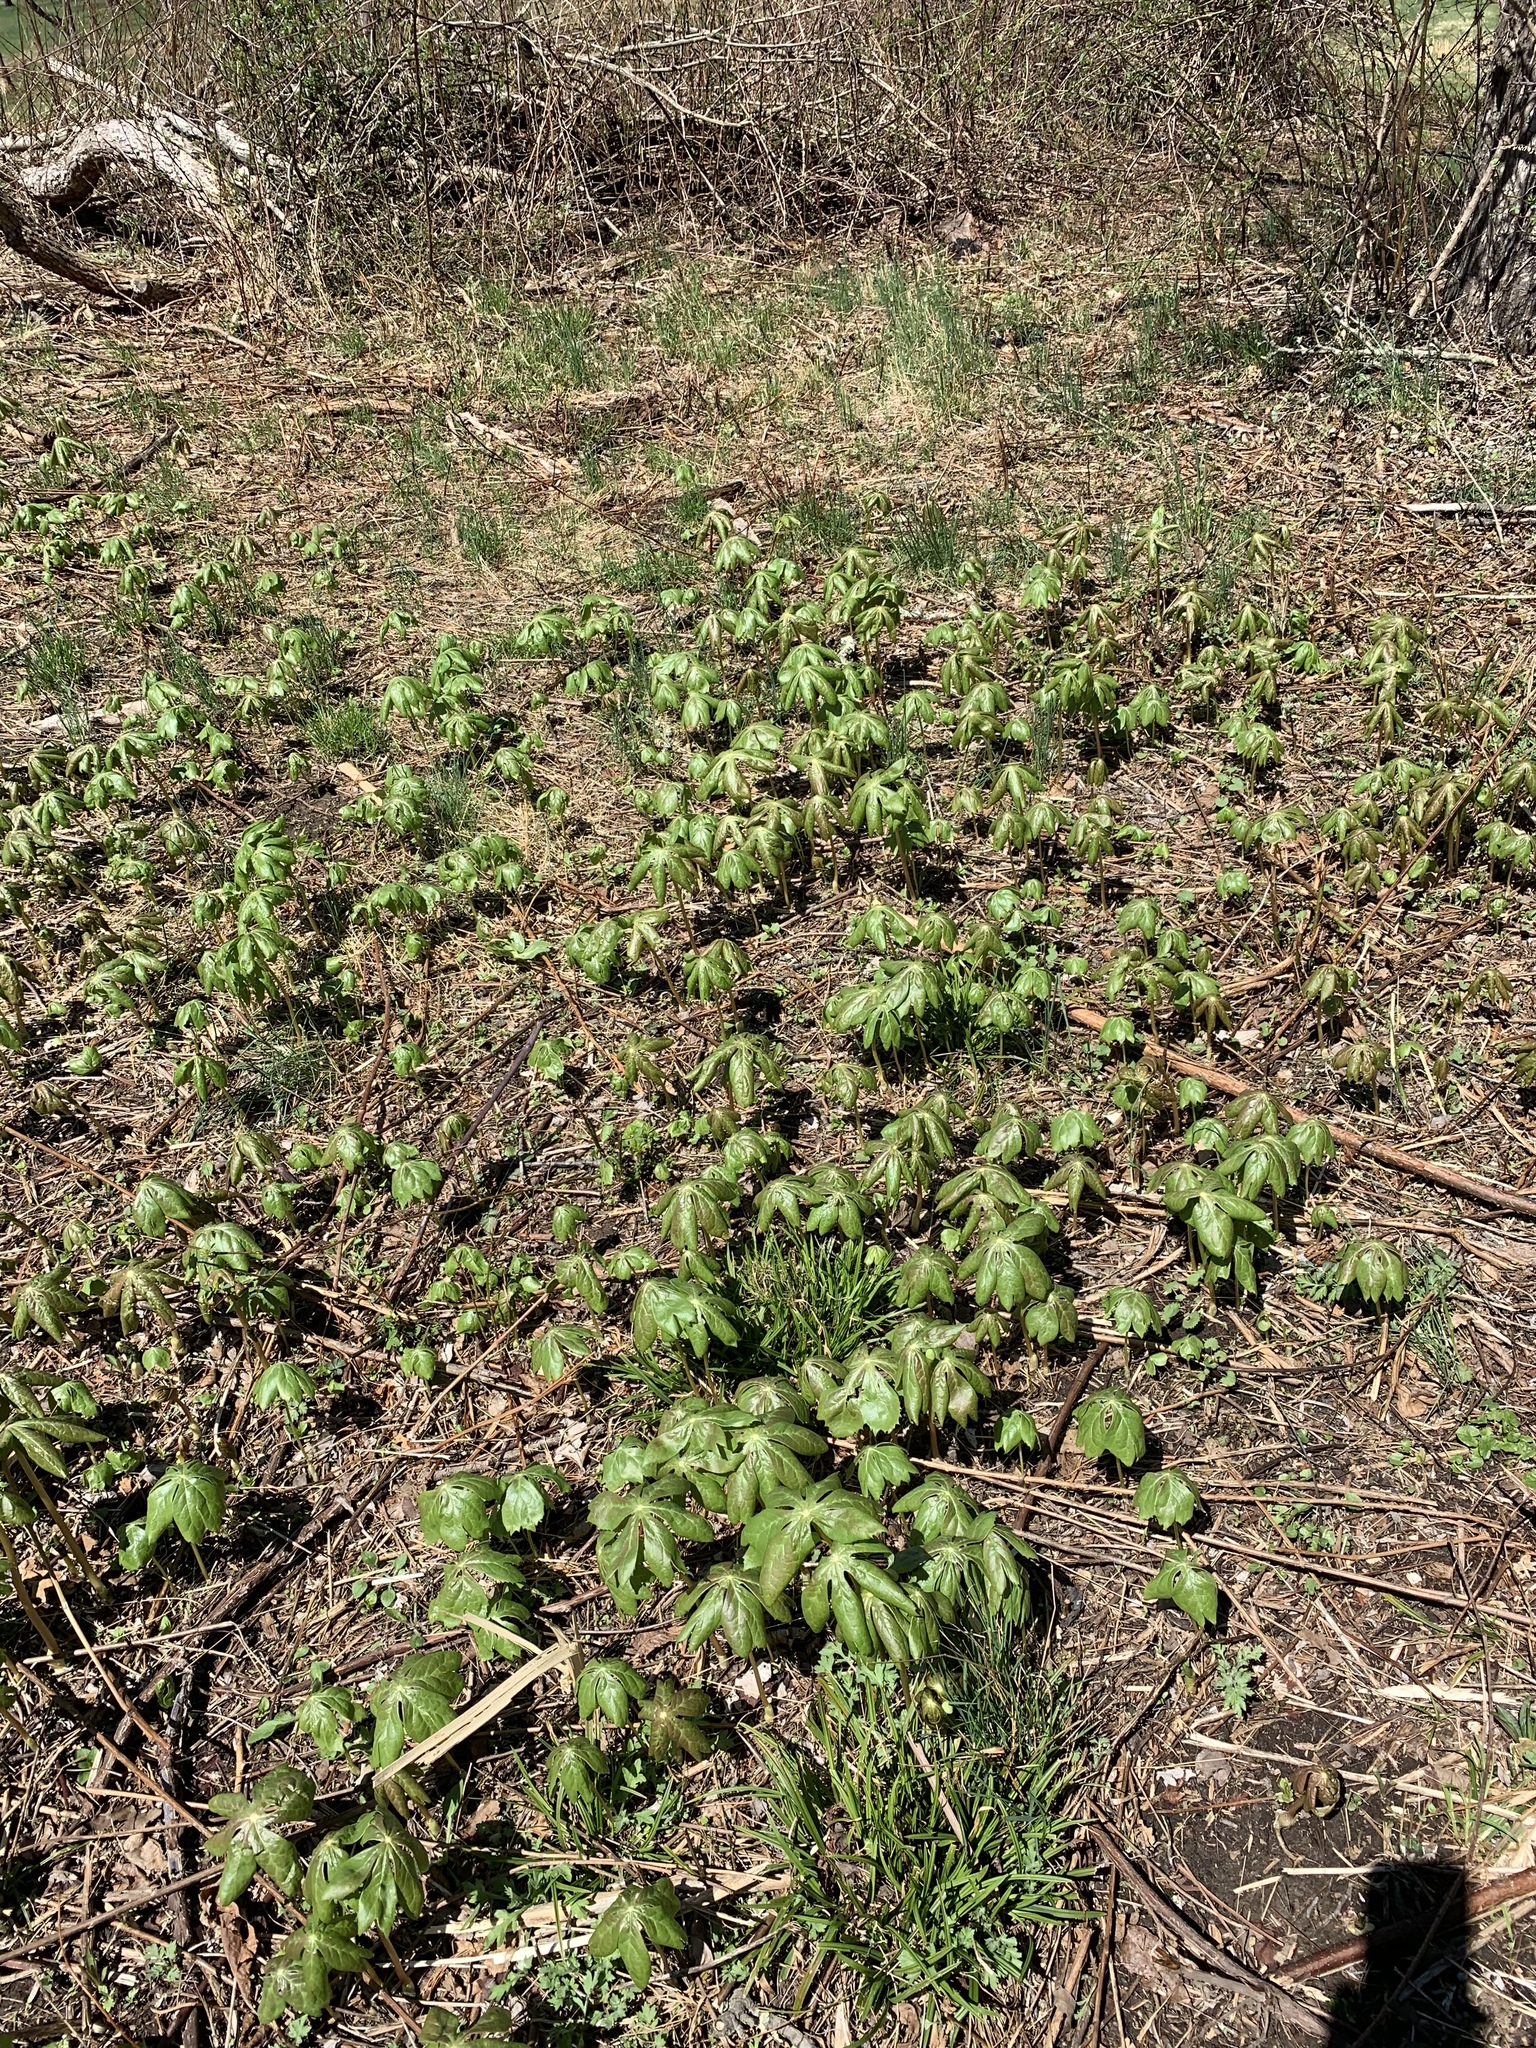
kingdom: Plantae
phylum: Tracheophyta
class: Magnoliopsida
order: Ranunculales
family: Berberidaceae
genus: Podophyllum
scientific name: Podophyllum peltatum
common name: Wild mandrake
